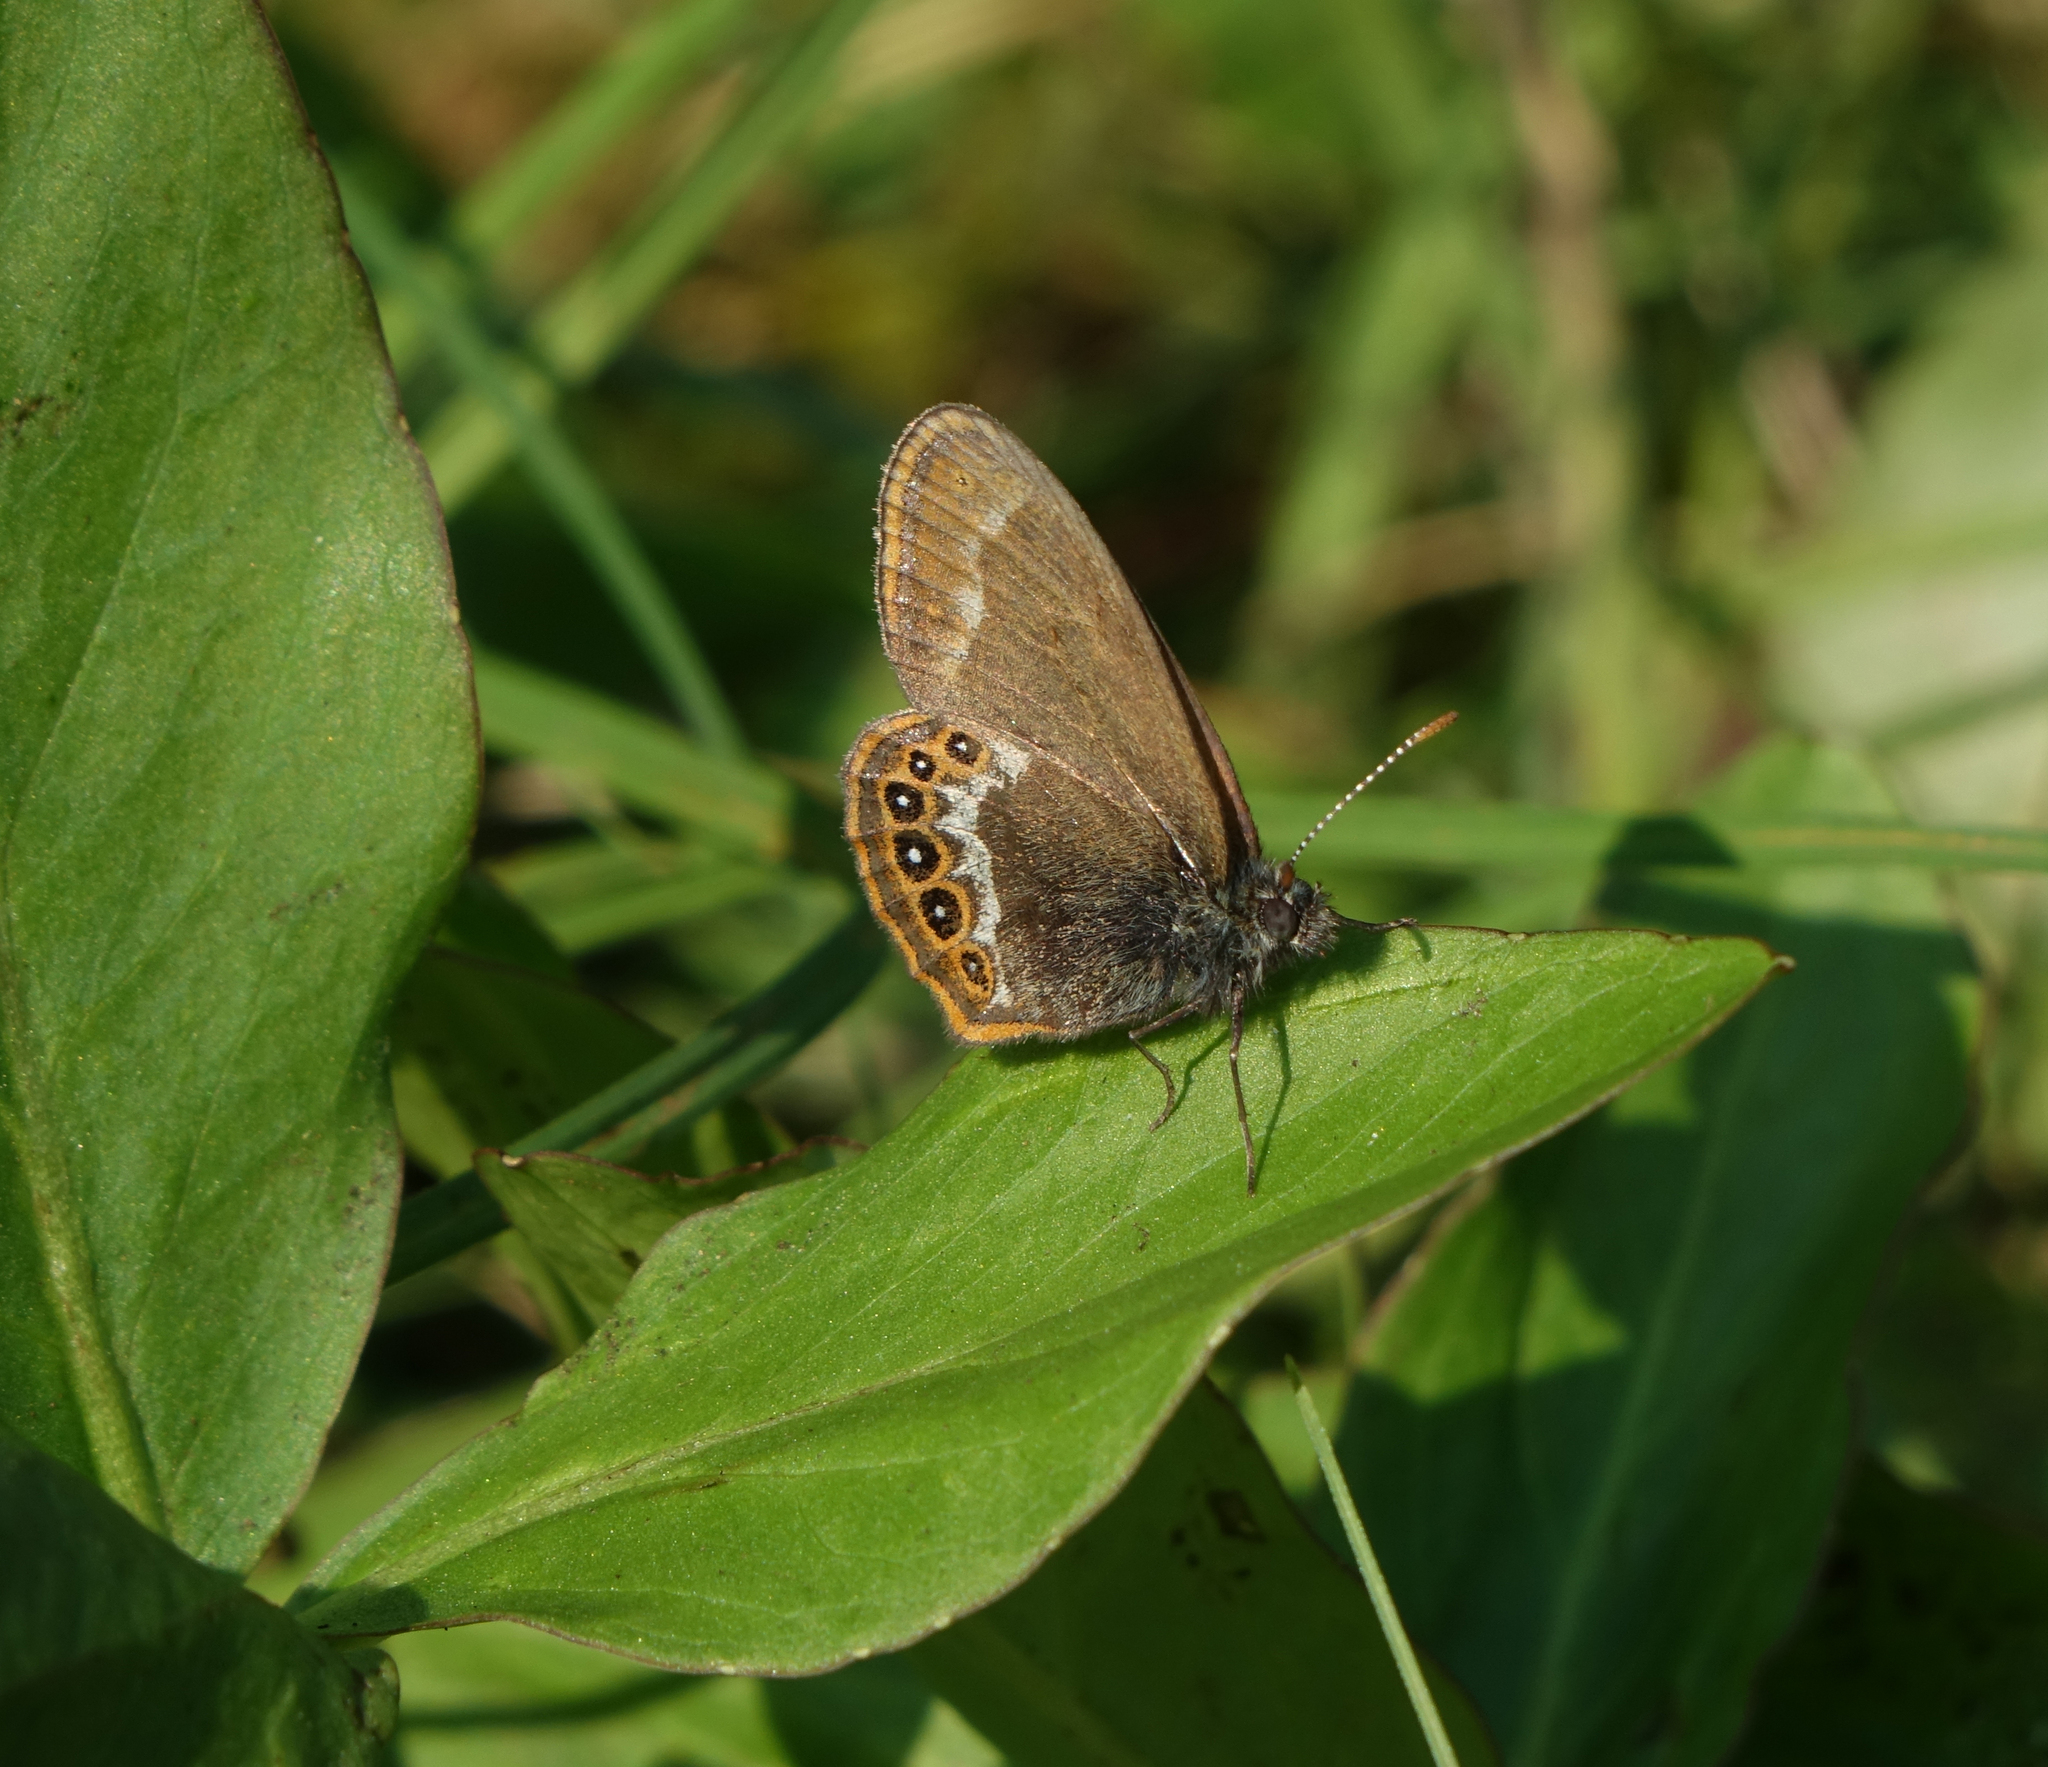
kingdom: Animalia
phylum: Arthropoda
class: Insecta
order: Lepidoptera
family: Nymphalidae
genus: Coenonympha
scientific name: Coenonympha hero
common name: Scarce heath
